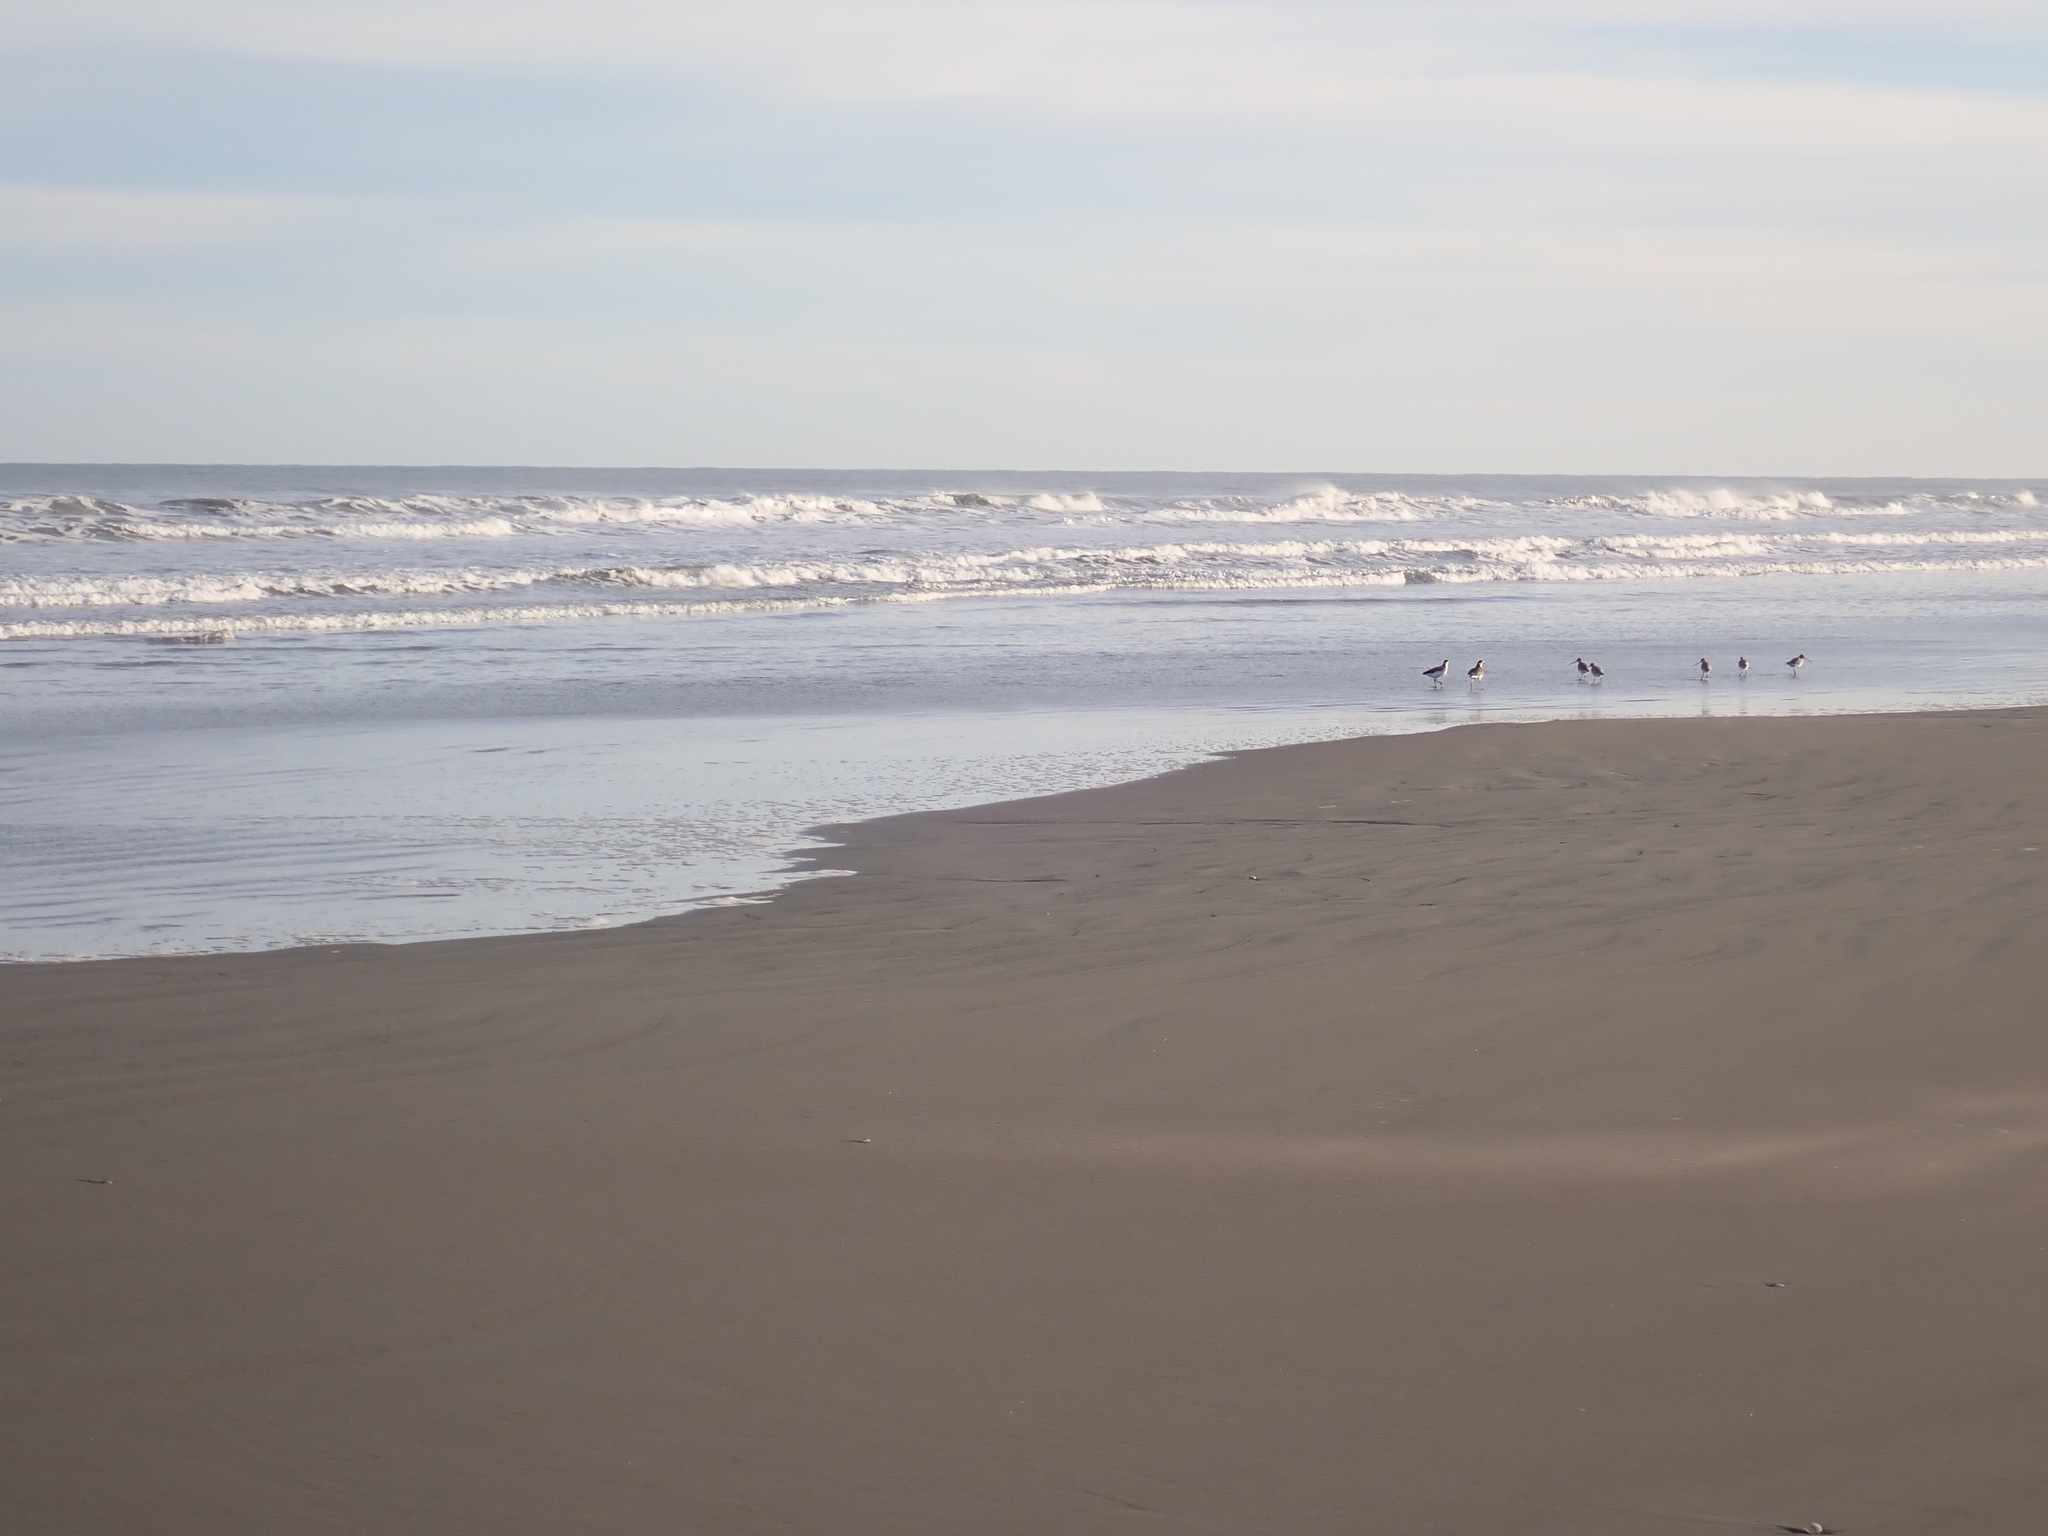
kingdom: Animalia
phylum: Chordata
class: Aves
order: Charadriiformes
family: Charadriidae
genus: Vanellus
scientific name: Vanellus miles
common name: Masked lapwing
